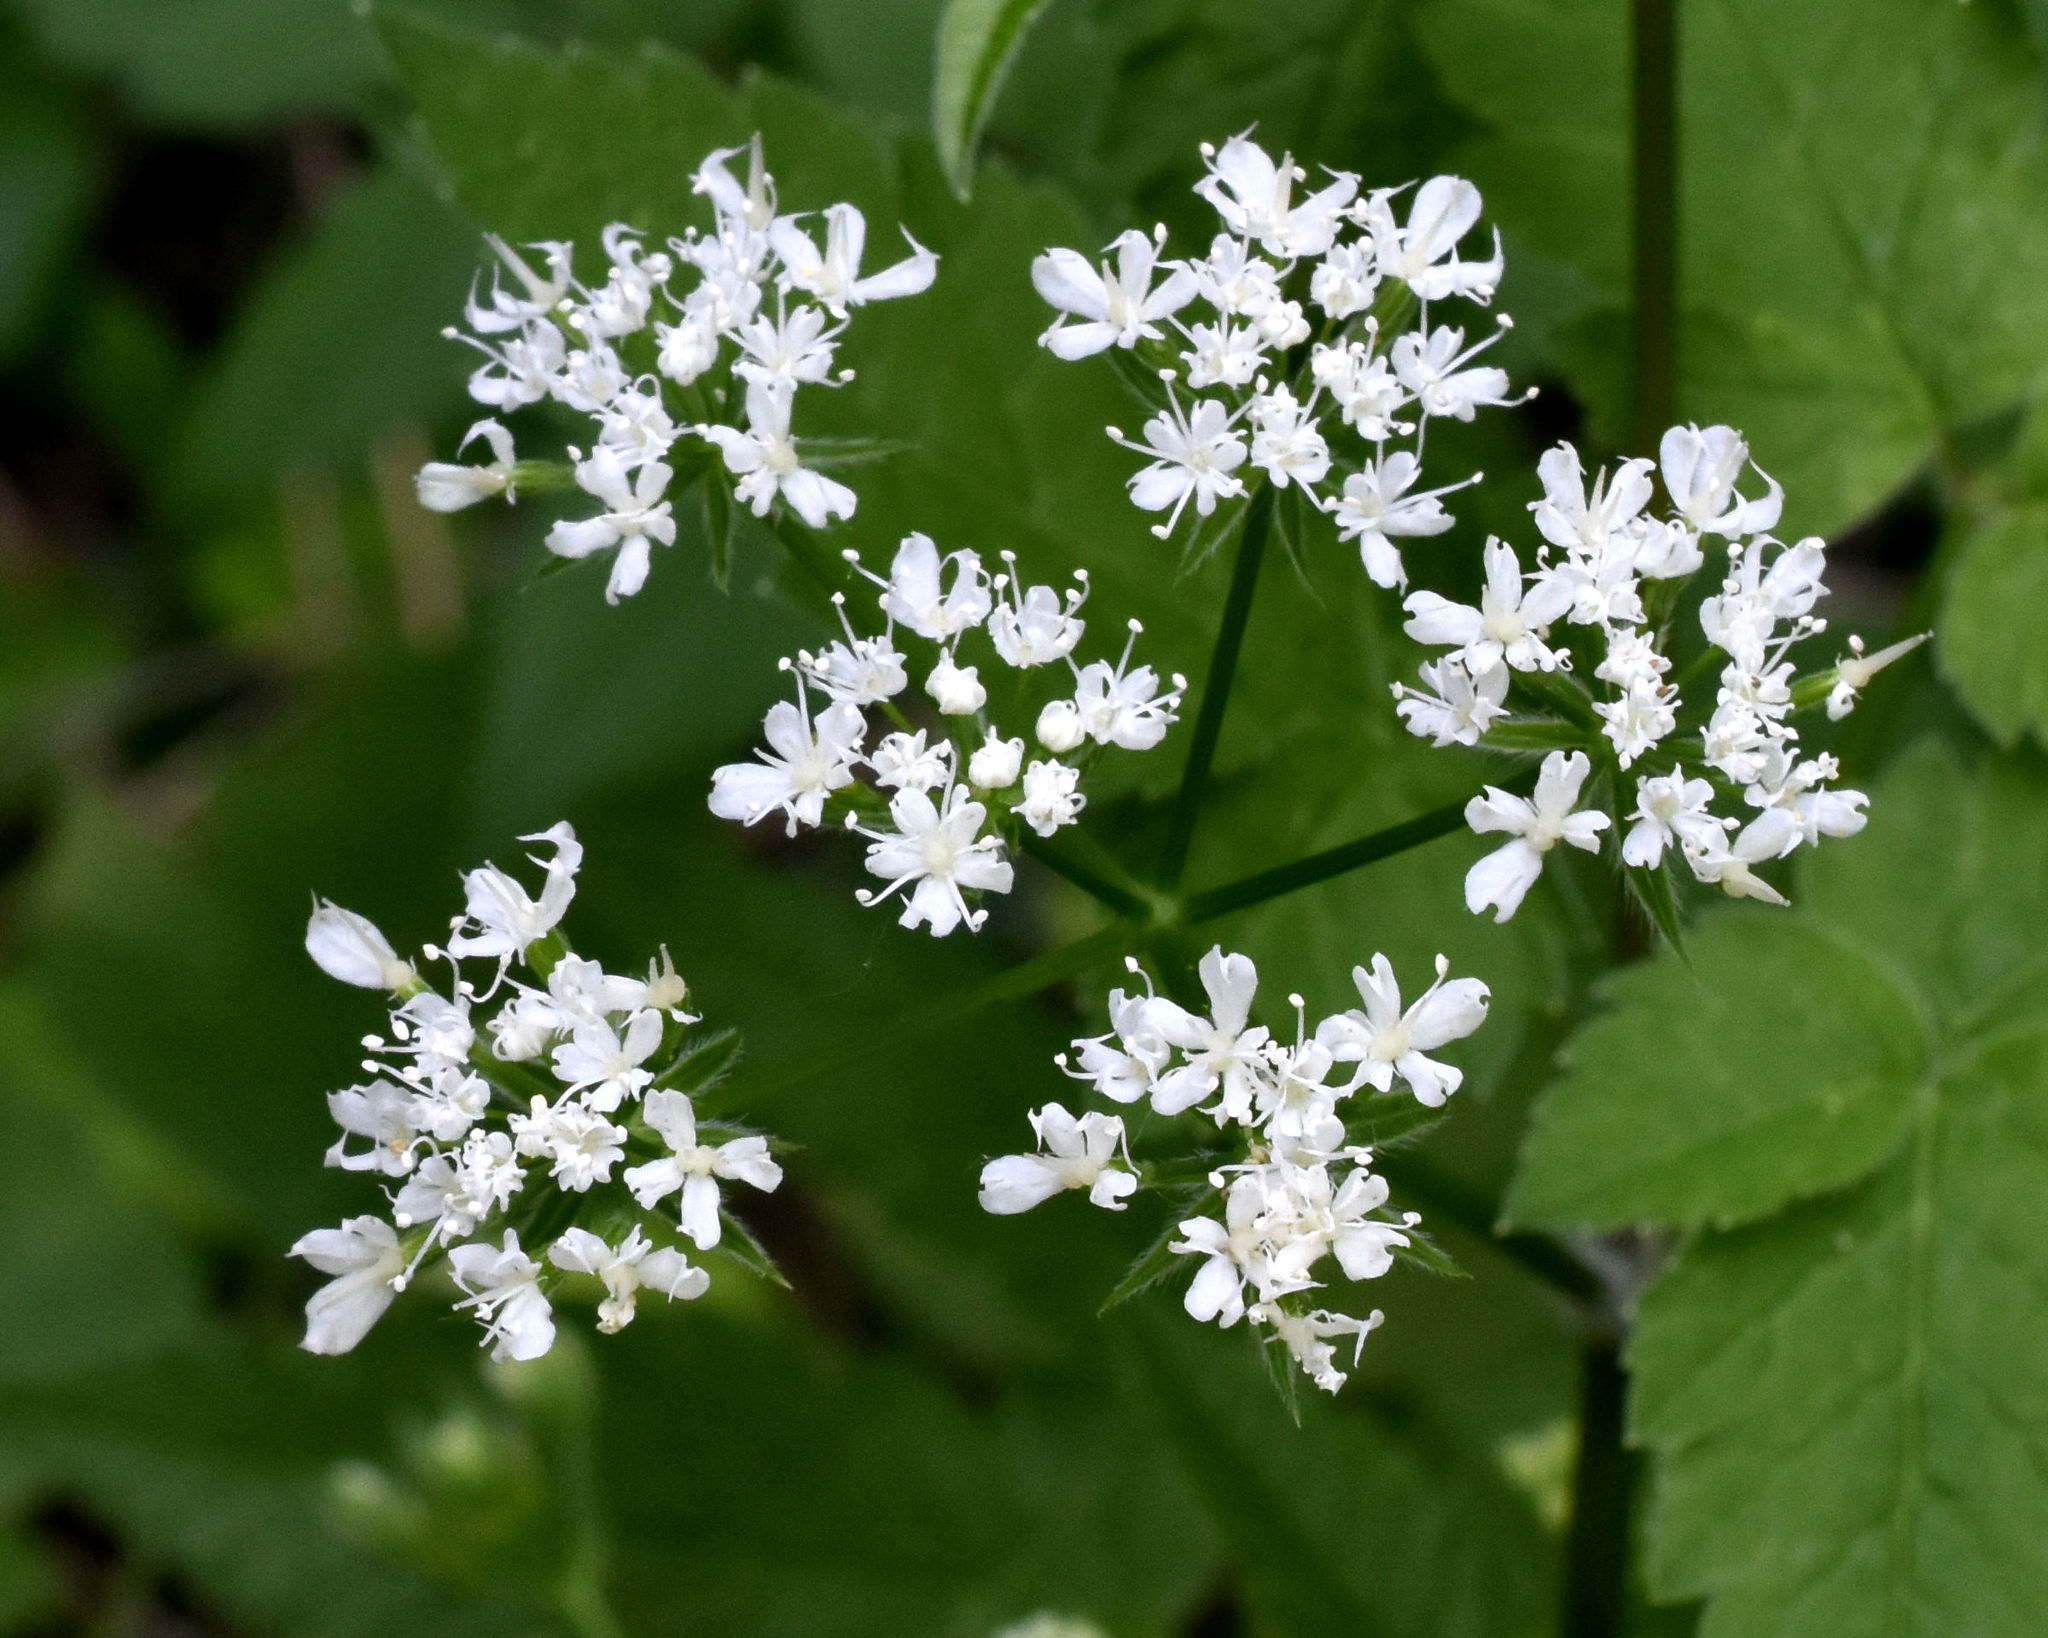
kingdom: Plantae
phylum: Tracheophyta
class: Magnoliopsida
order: Apiales
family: Apiaceae
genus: Osmorhiza
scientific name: Osmorhiza longistylis
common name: Smooth sweet cicely
